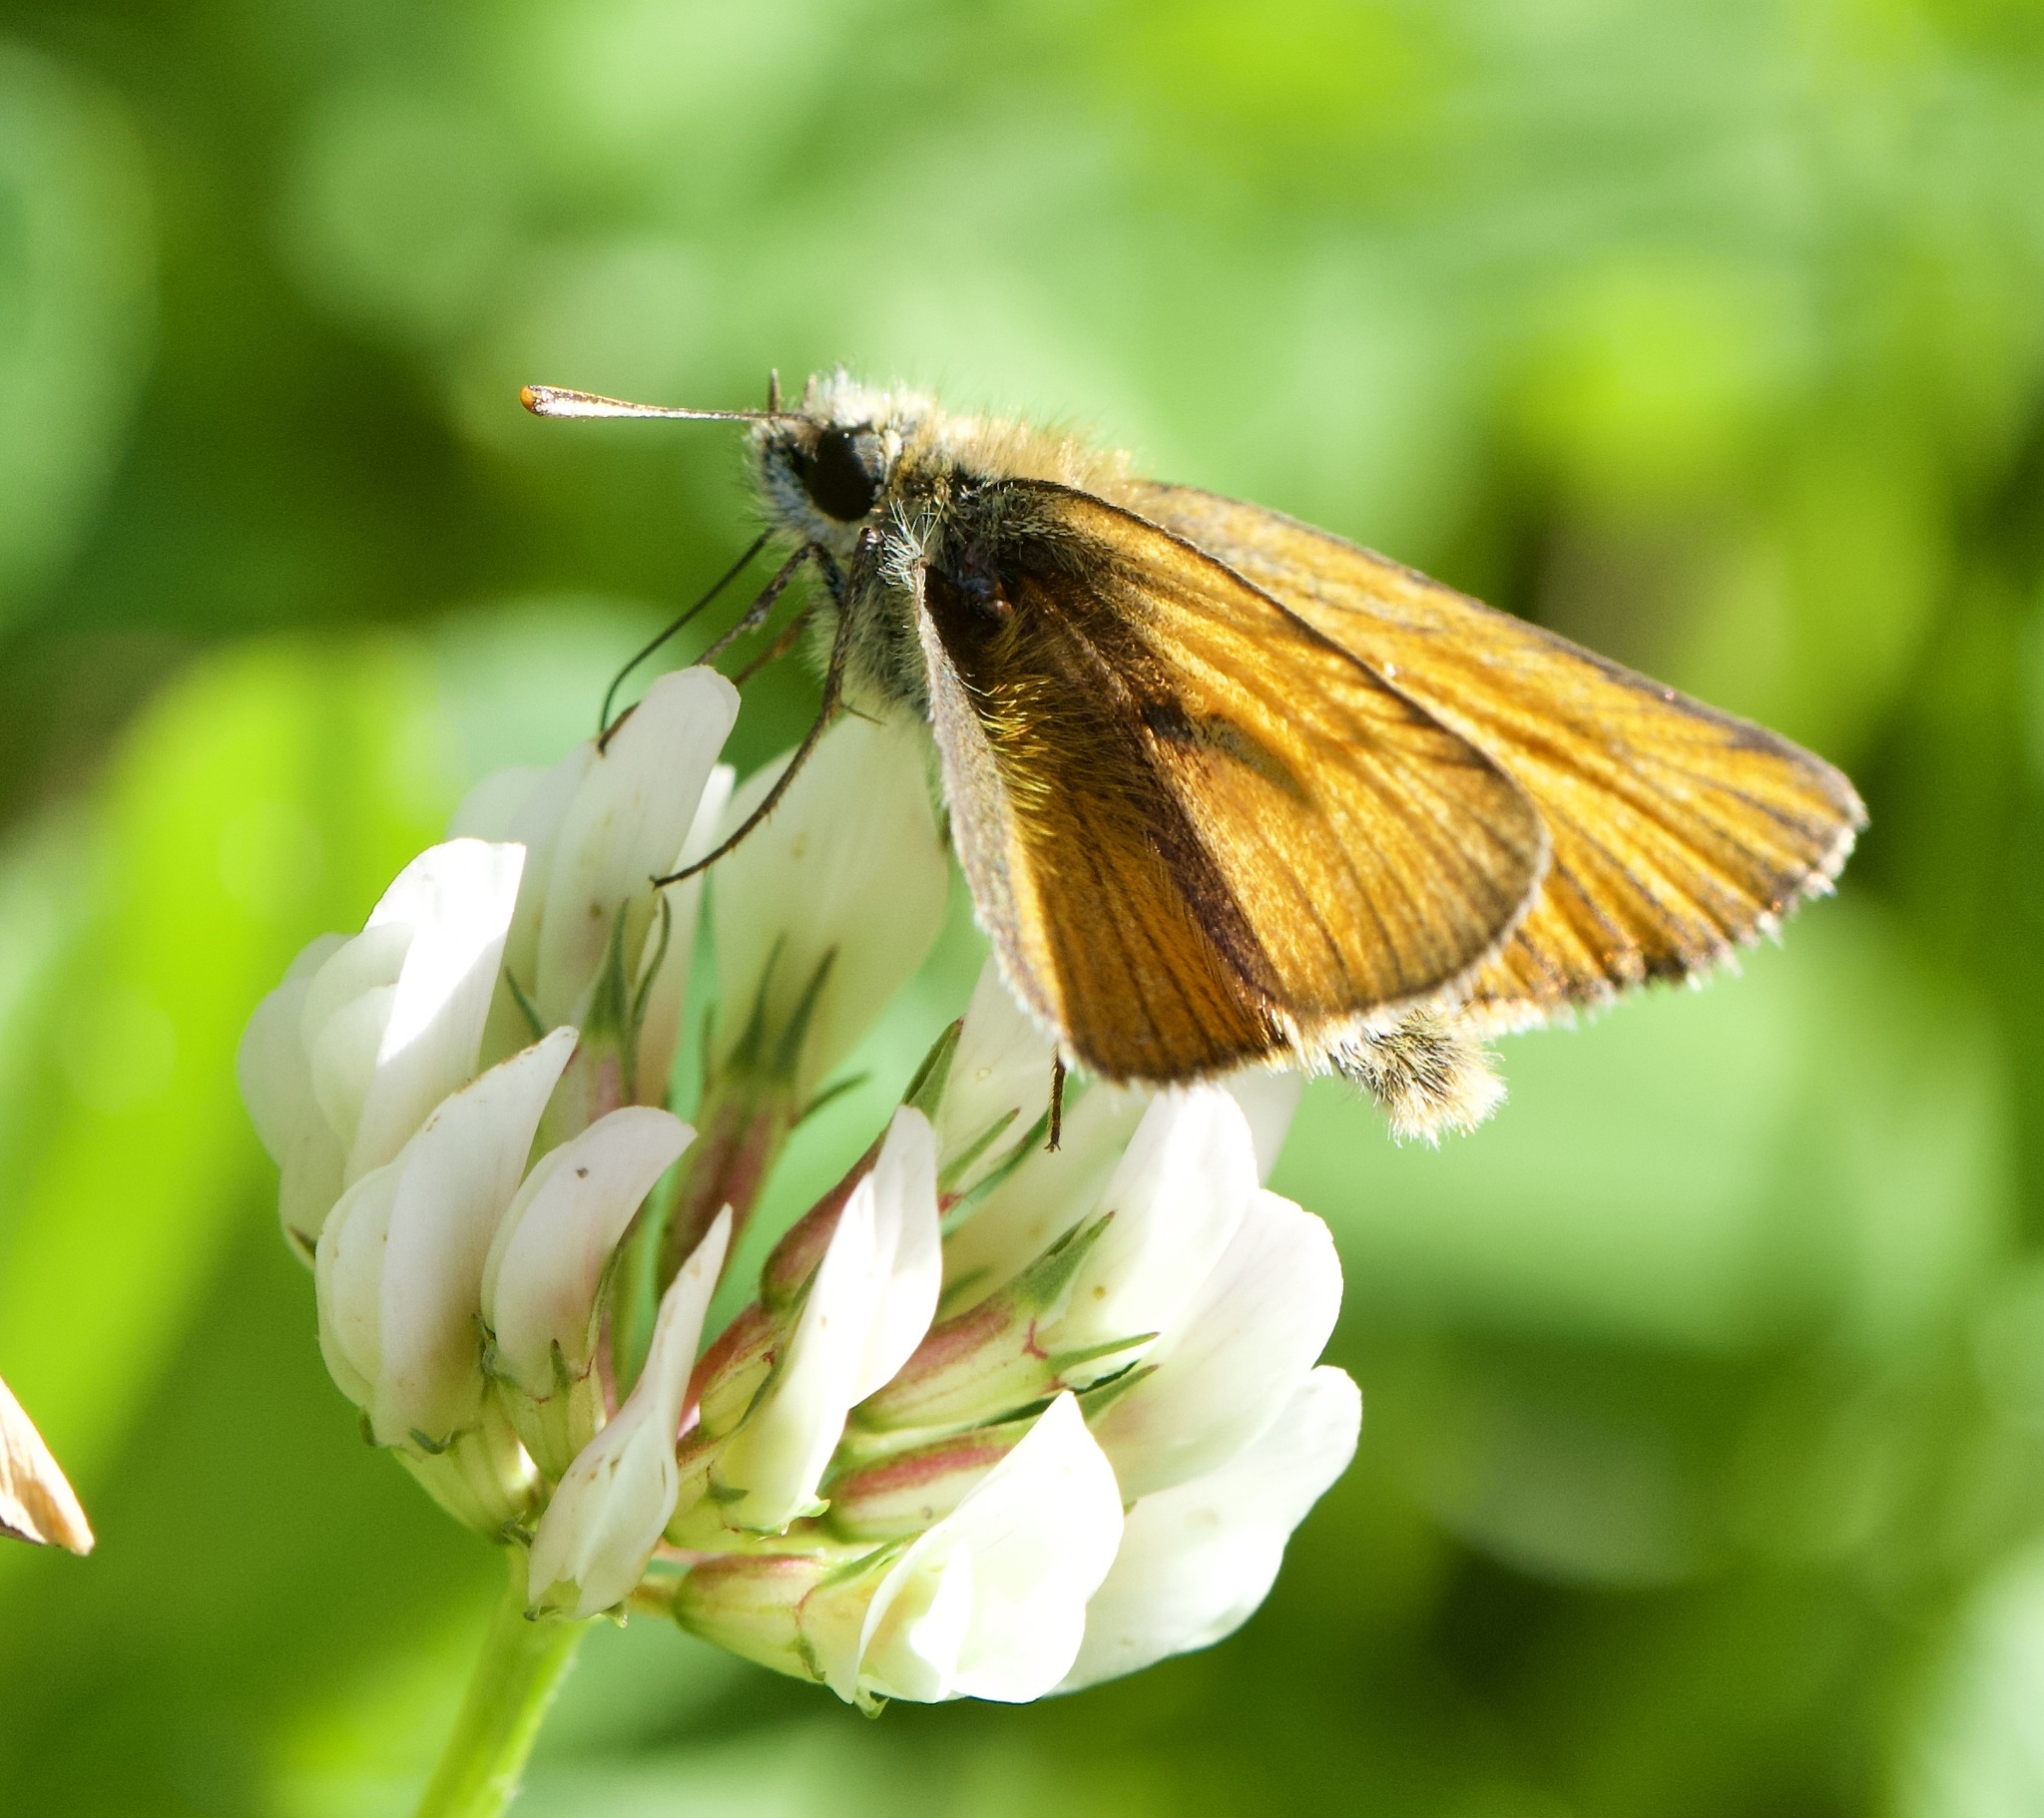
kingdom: Animalia
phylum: Arthropoda
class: Insecta
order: Lepidoptera
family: Hesperiidae
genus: Thymelicus
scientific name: Thymelicus sylvestris
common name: Small skipper
